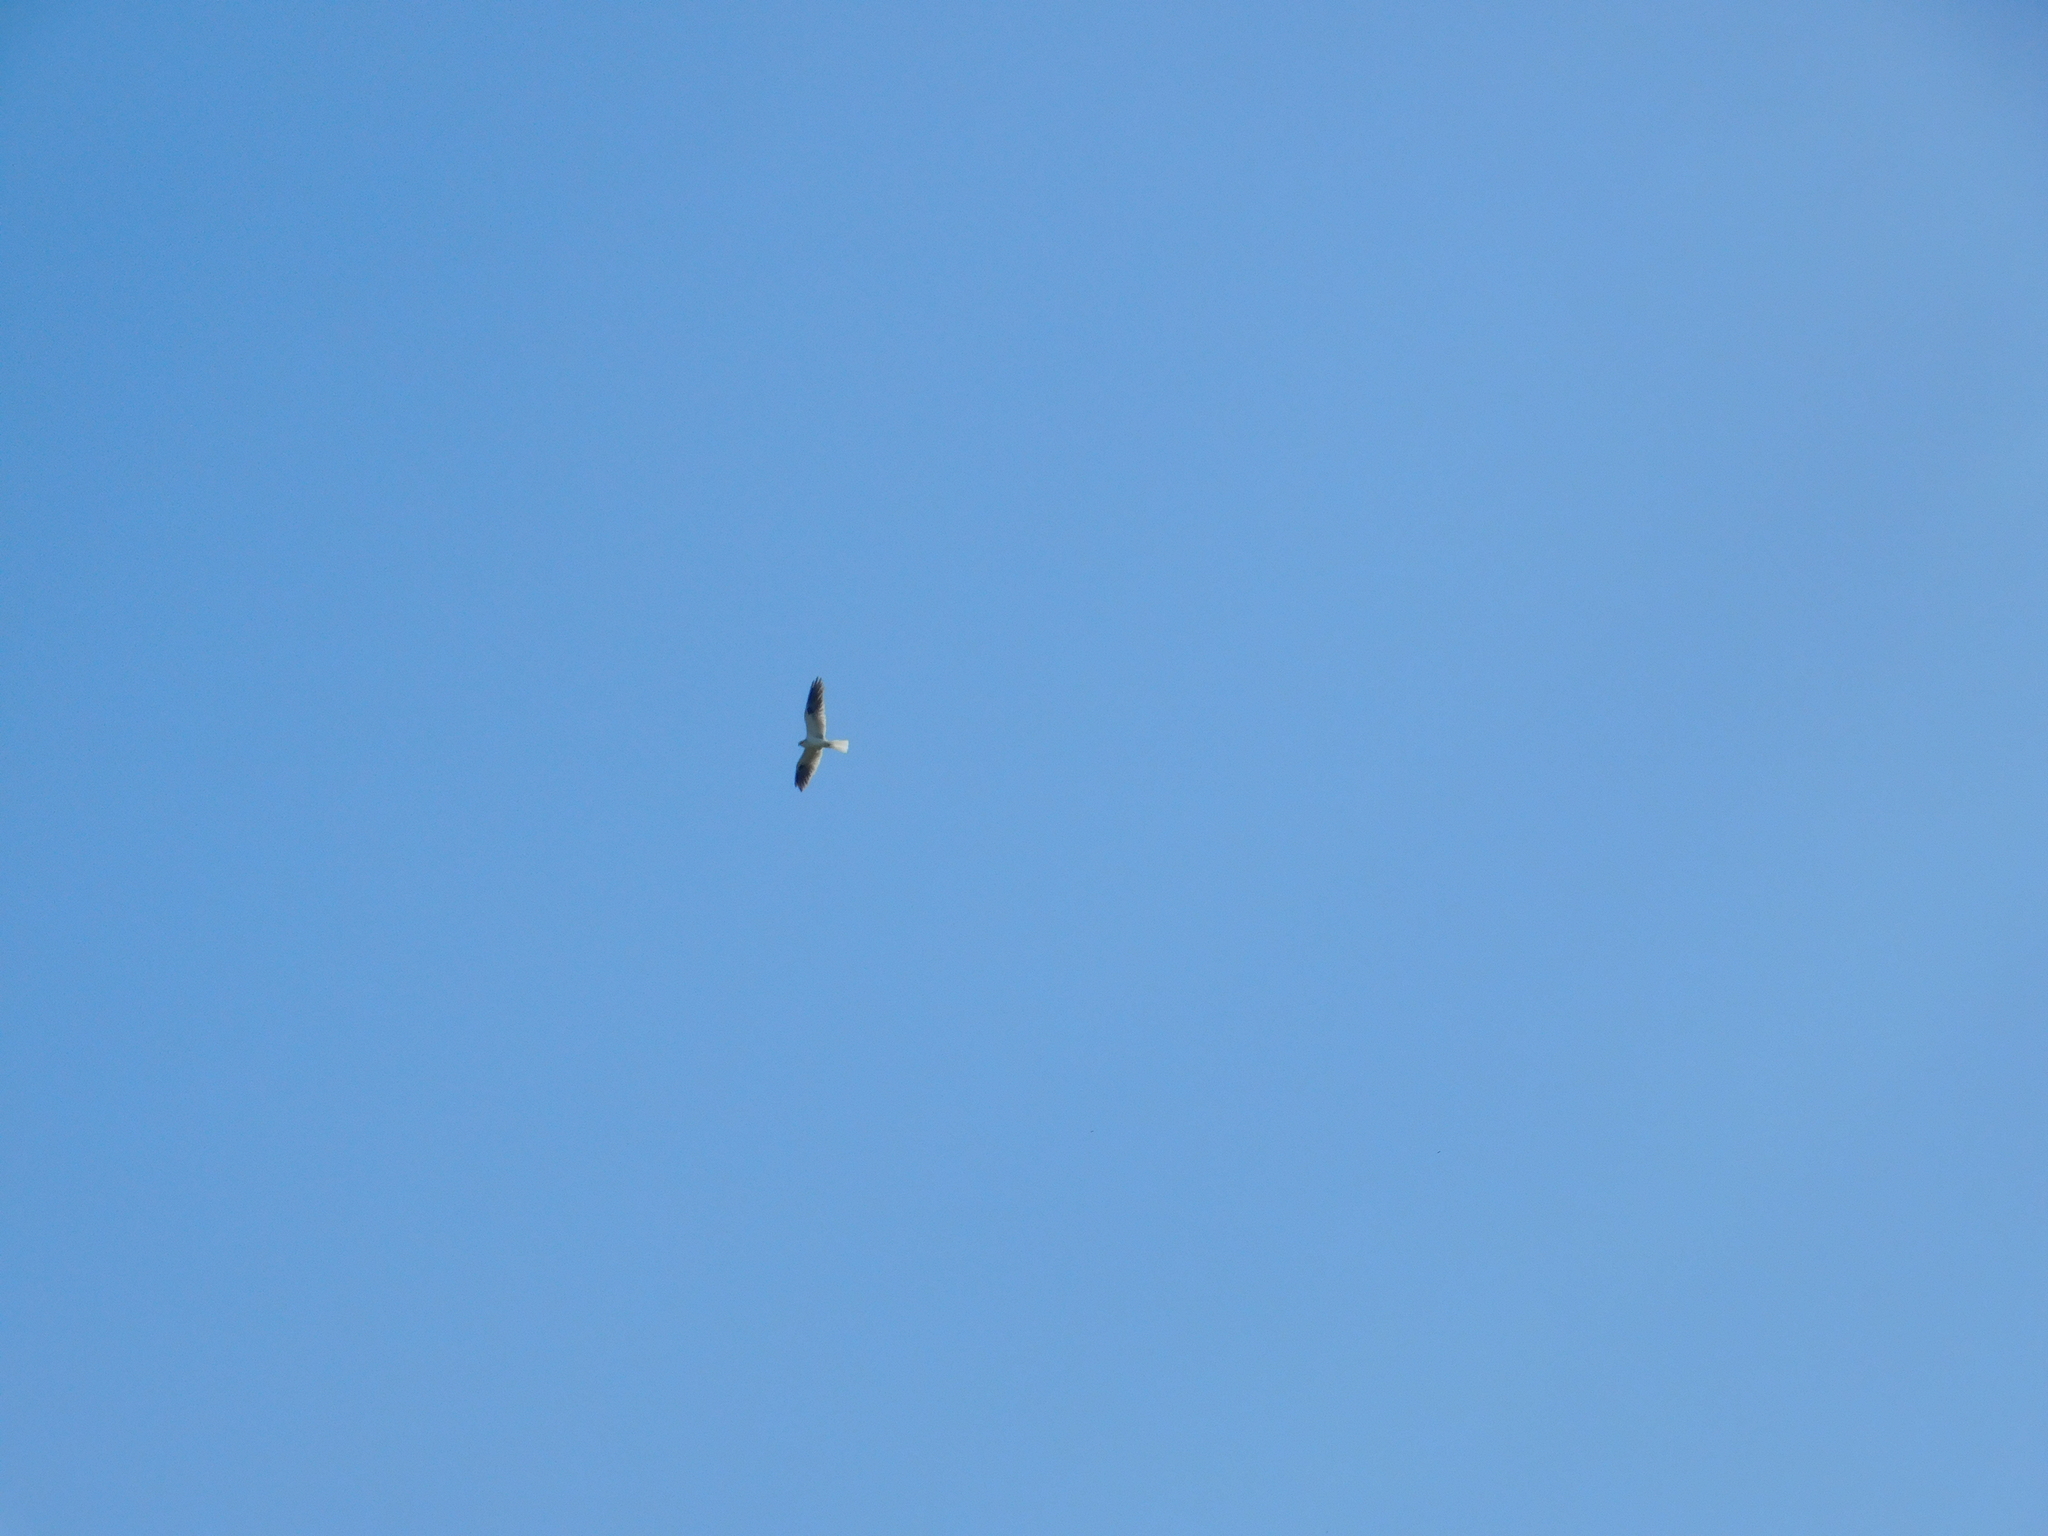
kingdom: Animalia
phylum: Chordata
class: Aves
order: Accipitriformes
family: Accipitridae
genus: Elanus
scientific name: Elanus leucurus
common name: White-tailed kite
